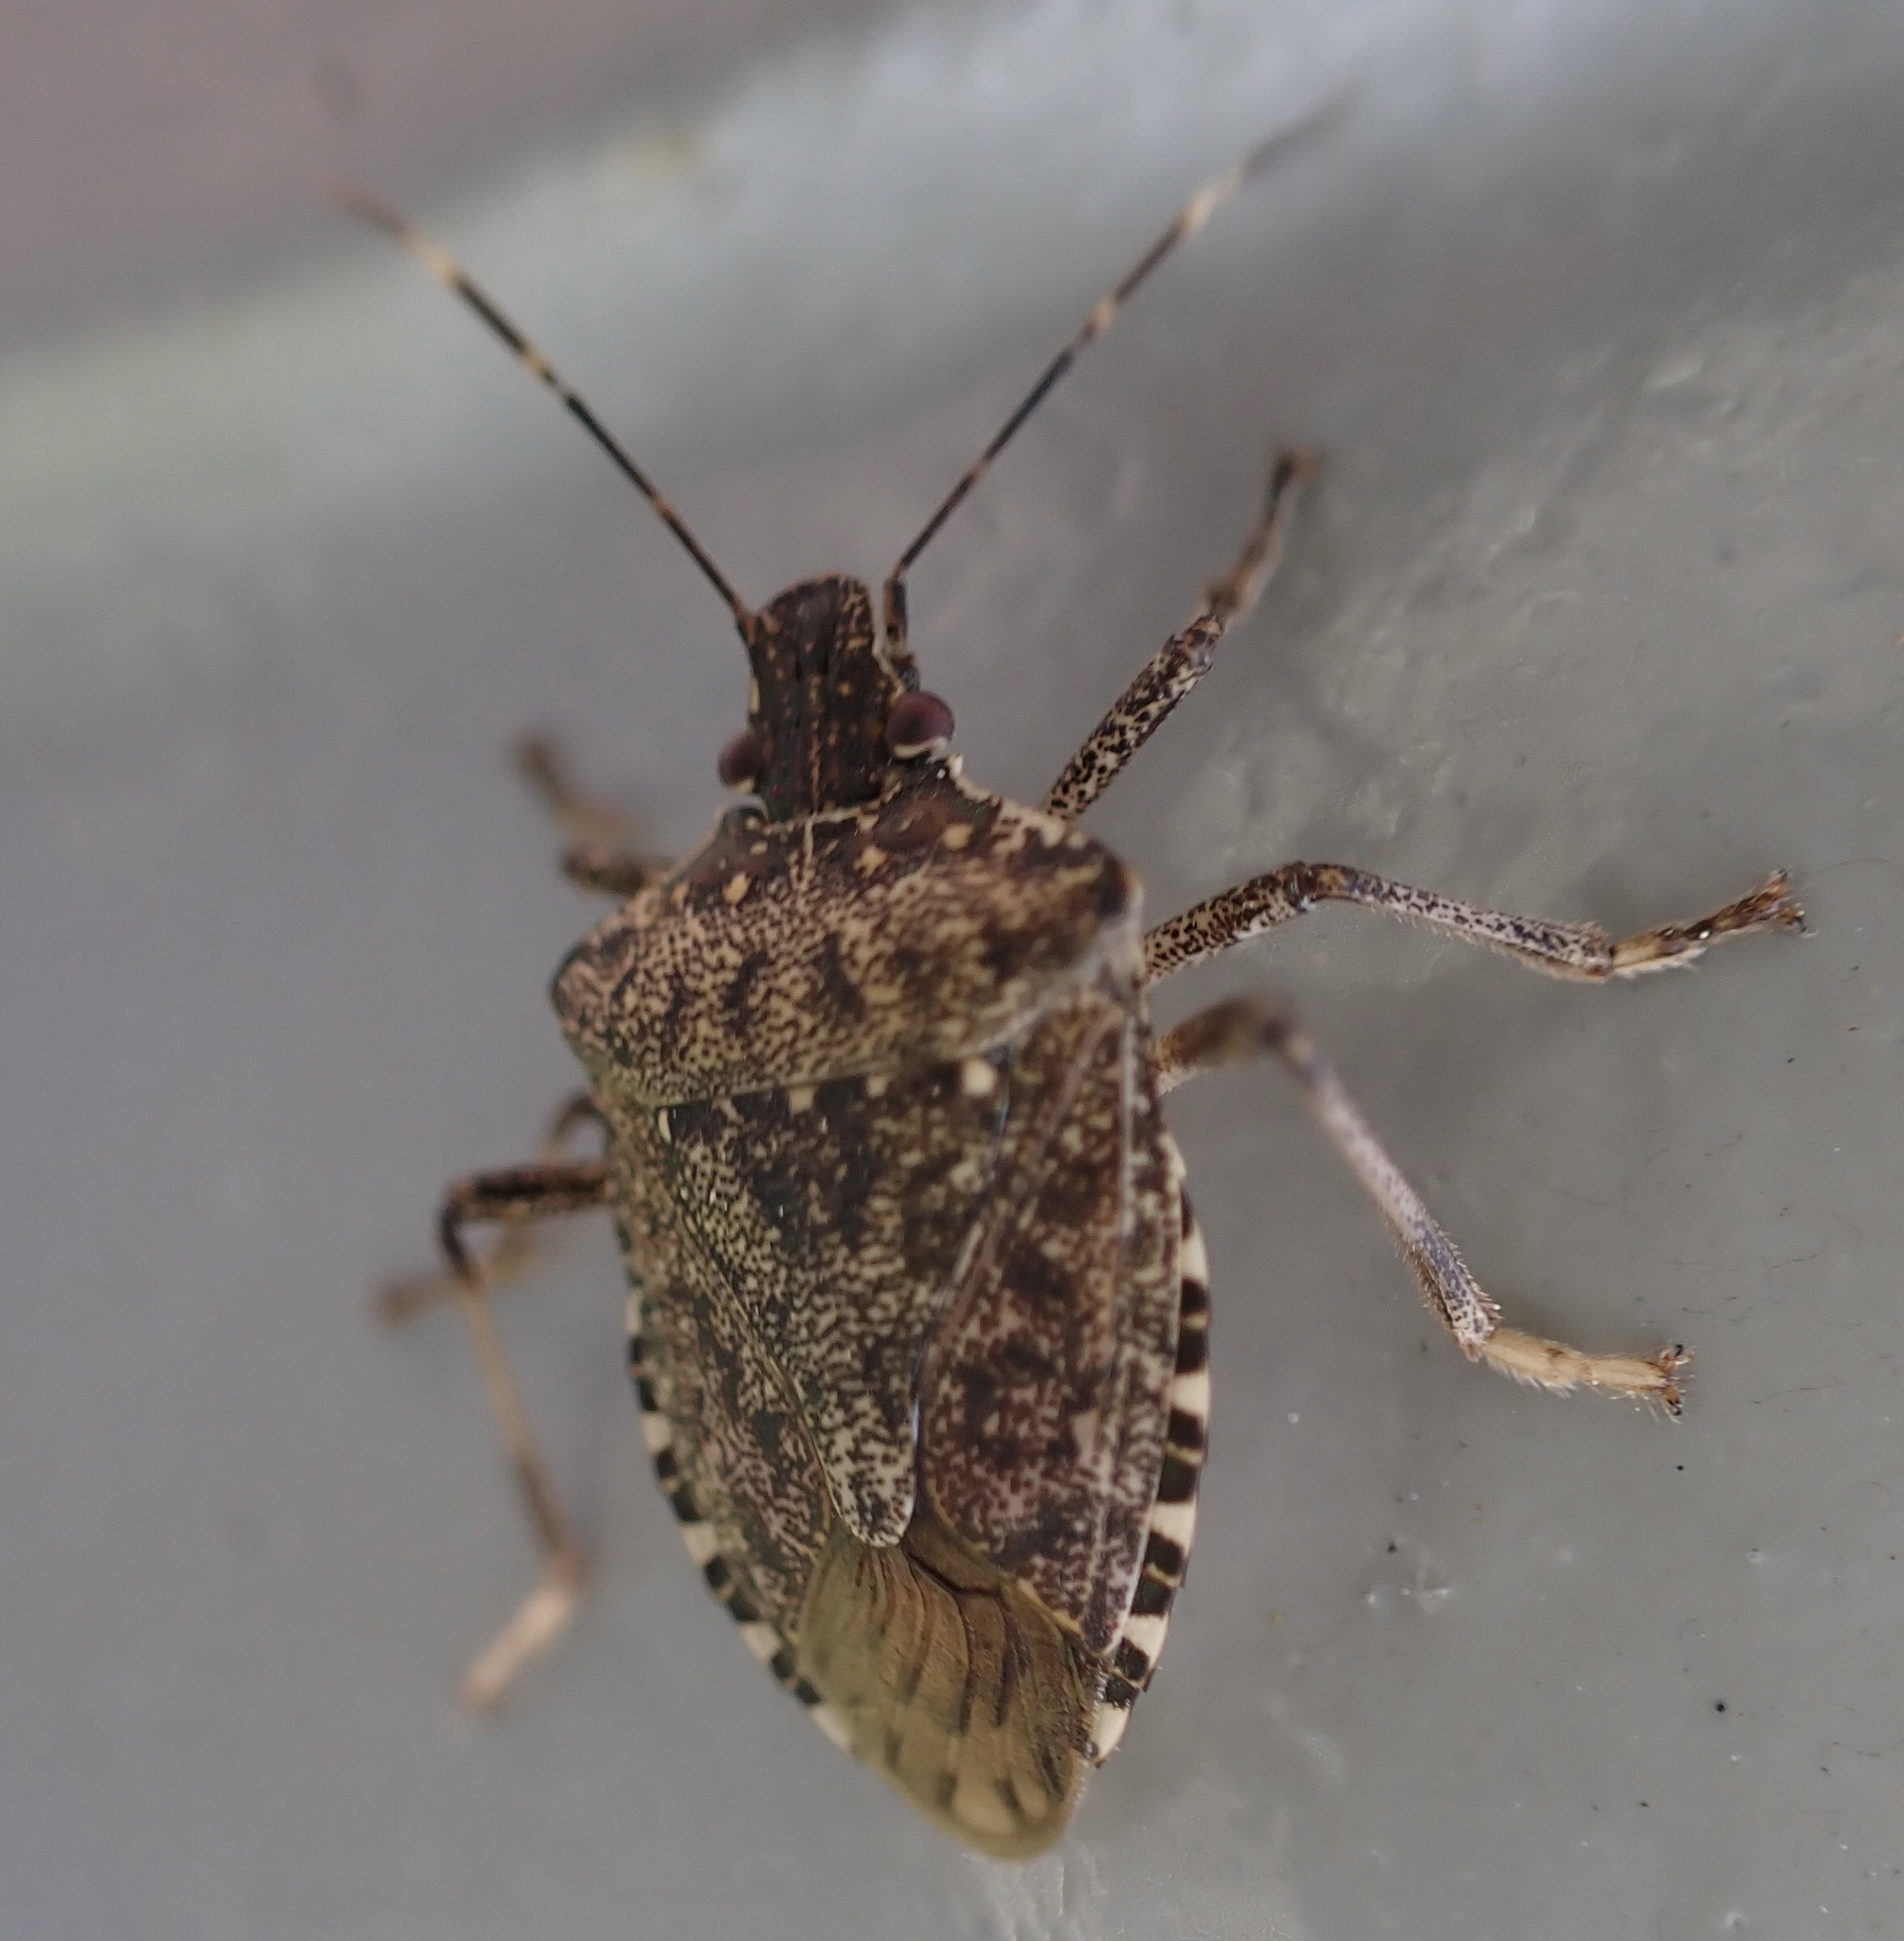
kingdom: Animalia
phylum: Arthropoda
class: Insecta
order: Hemiptera
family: Pentatomidae
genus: Halyomorpha
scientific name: Halyomorpha halys
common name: Brown marmorated stink bug
